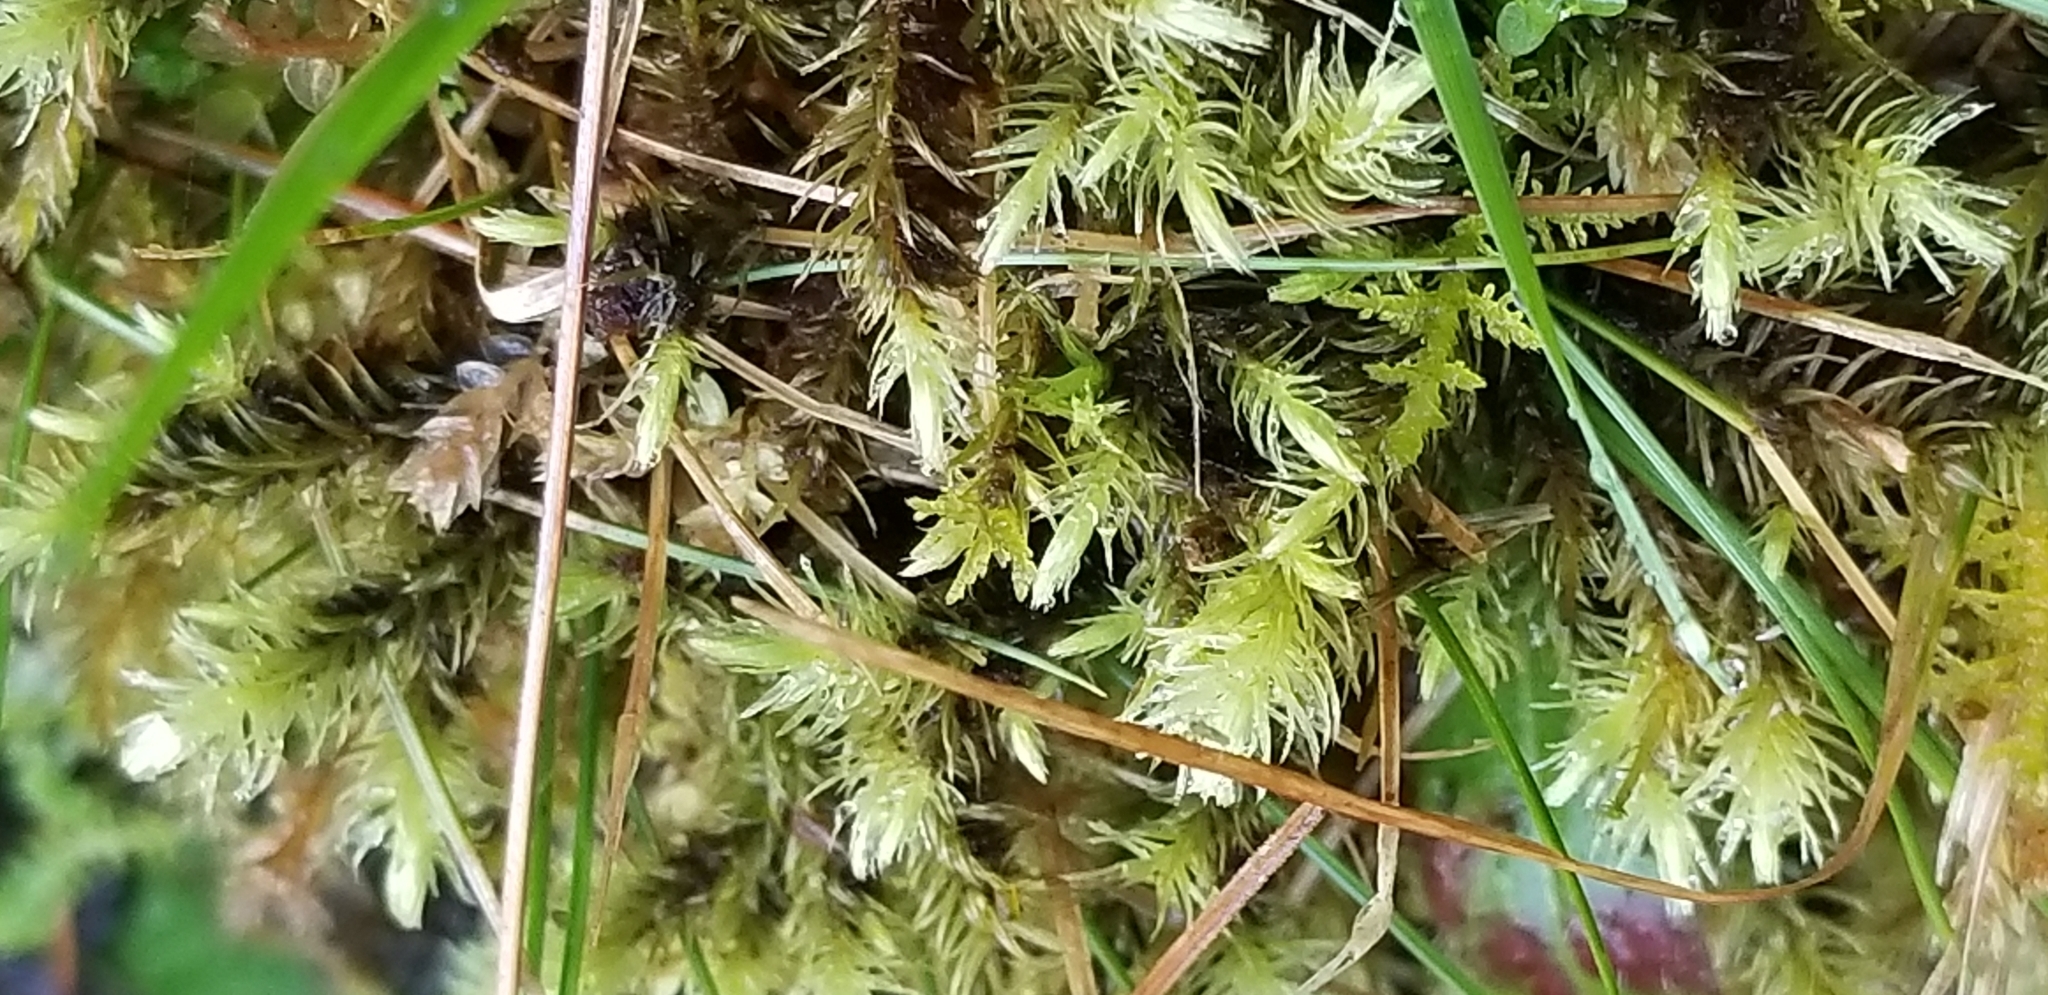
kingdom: Plantae
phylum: Bryophyta
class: Bryopsida
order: Aulacomniales
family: Aulacomniaceae
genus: Aulacomnium
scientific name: Aulacomnium palustre
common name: Bog groove-moss
